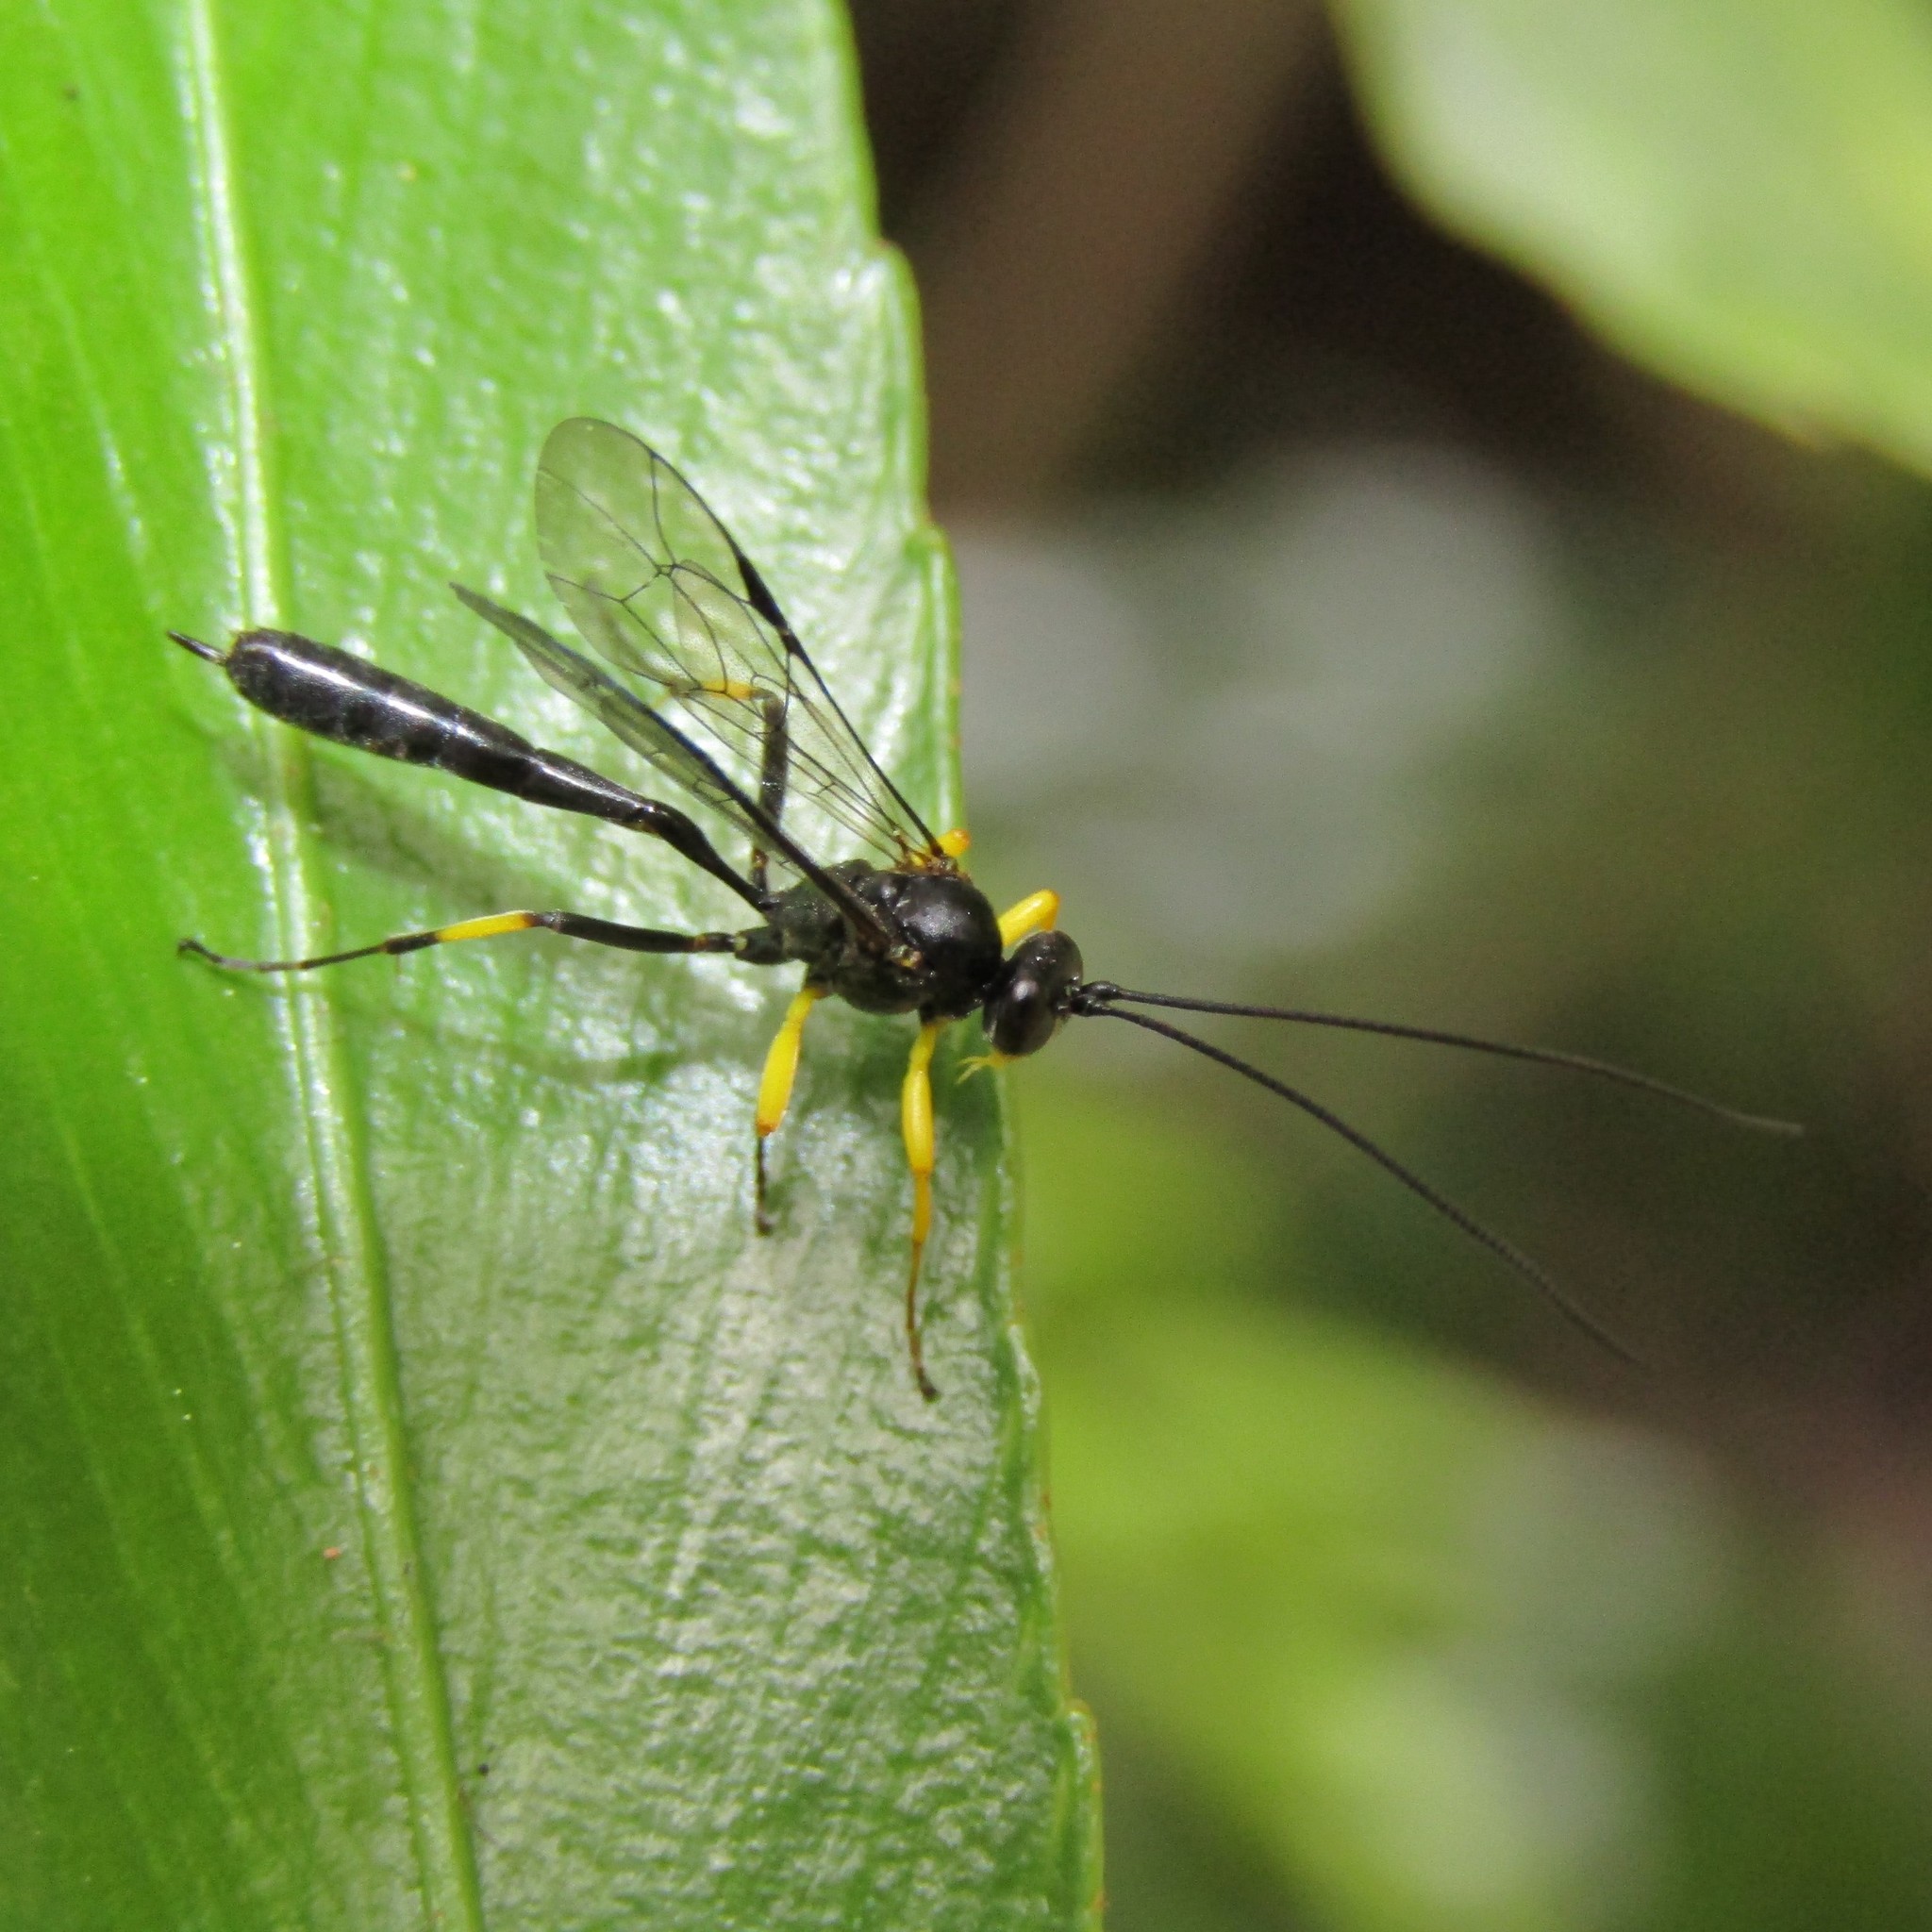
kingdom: Animalia
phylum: Arthropoda
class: Insecta
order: Hymenoptera
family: Ichneumonidae
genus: Dusona
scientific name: Dusona stramineipes
